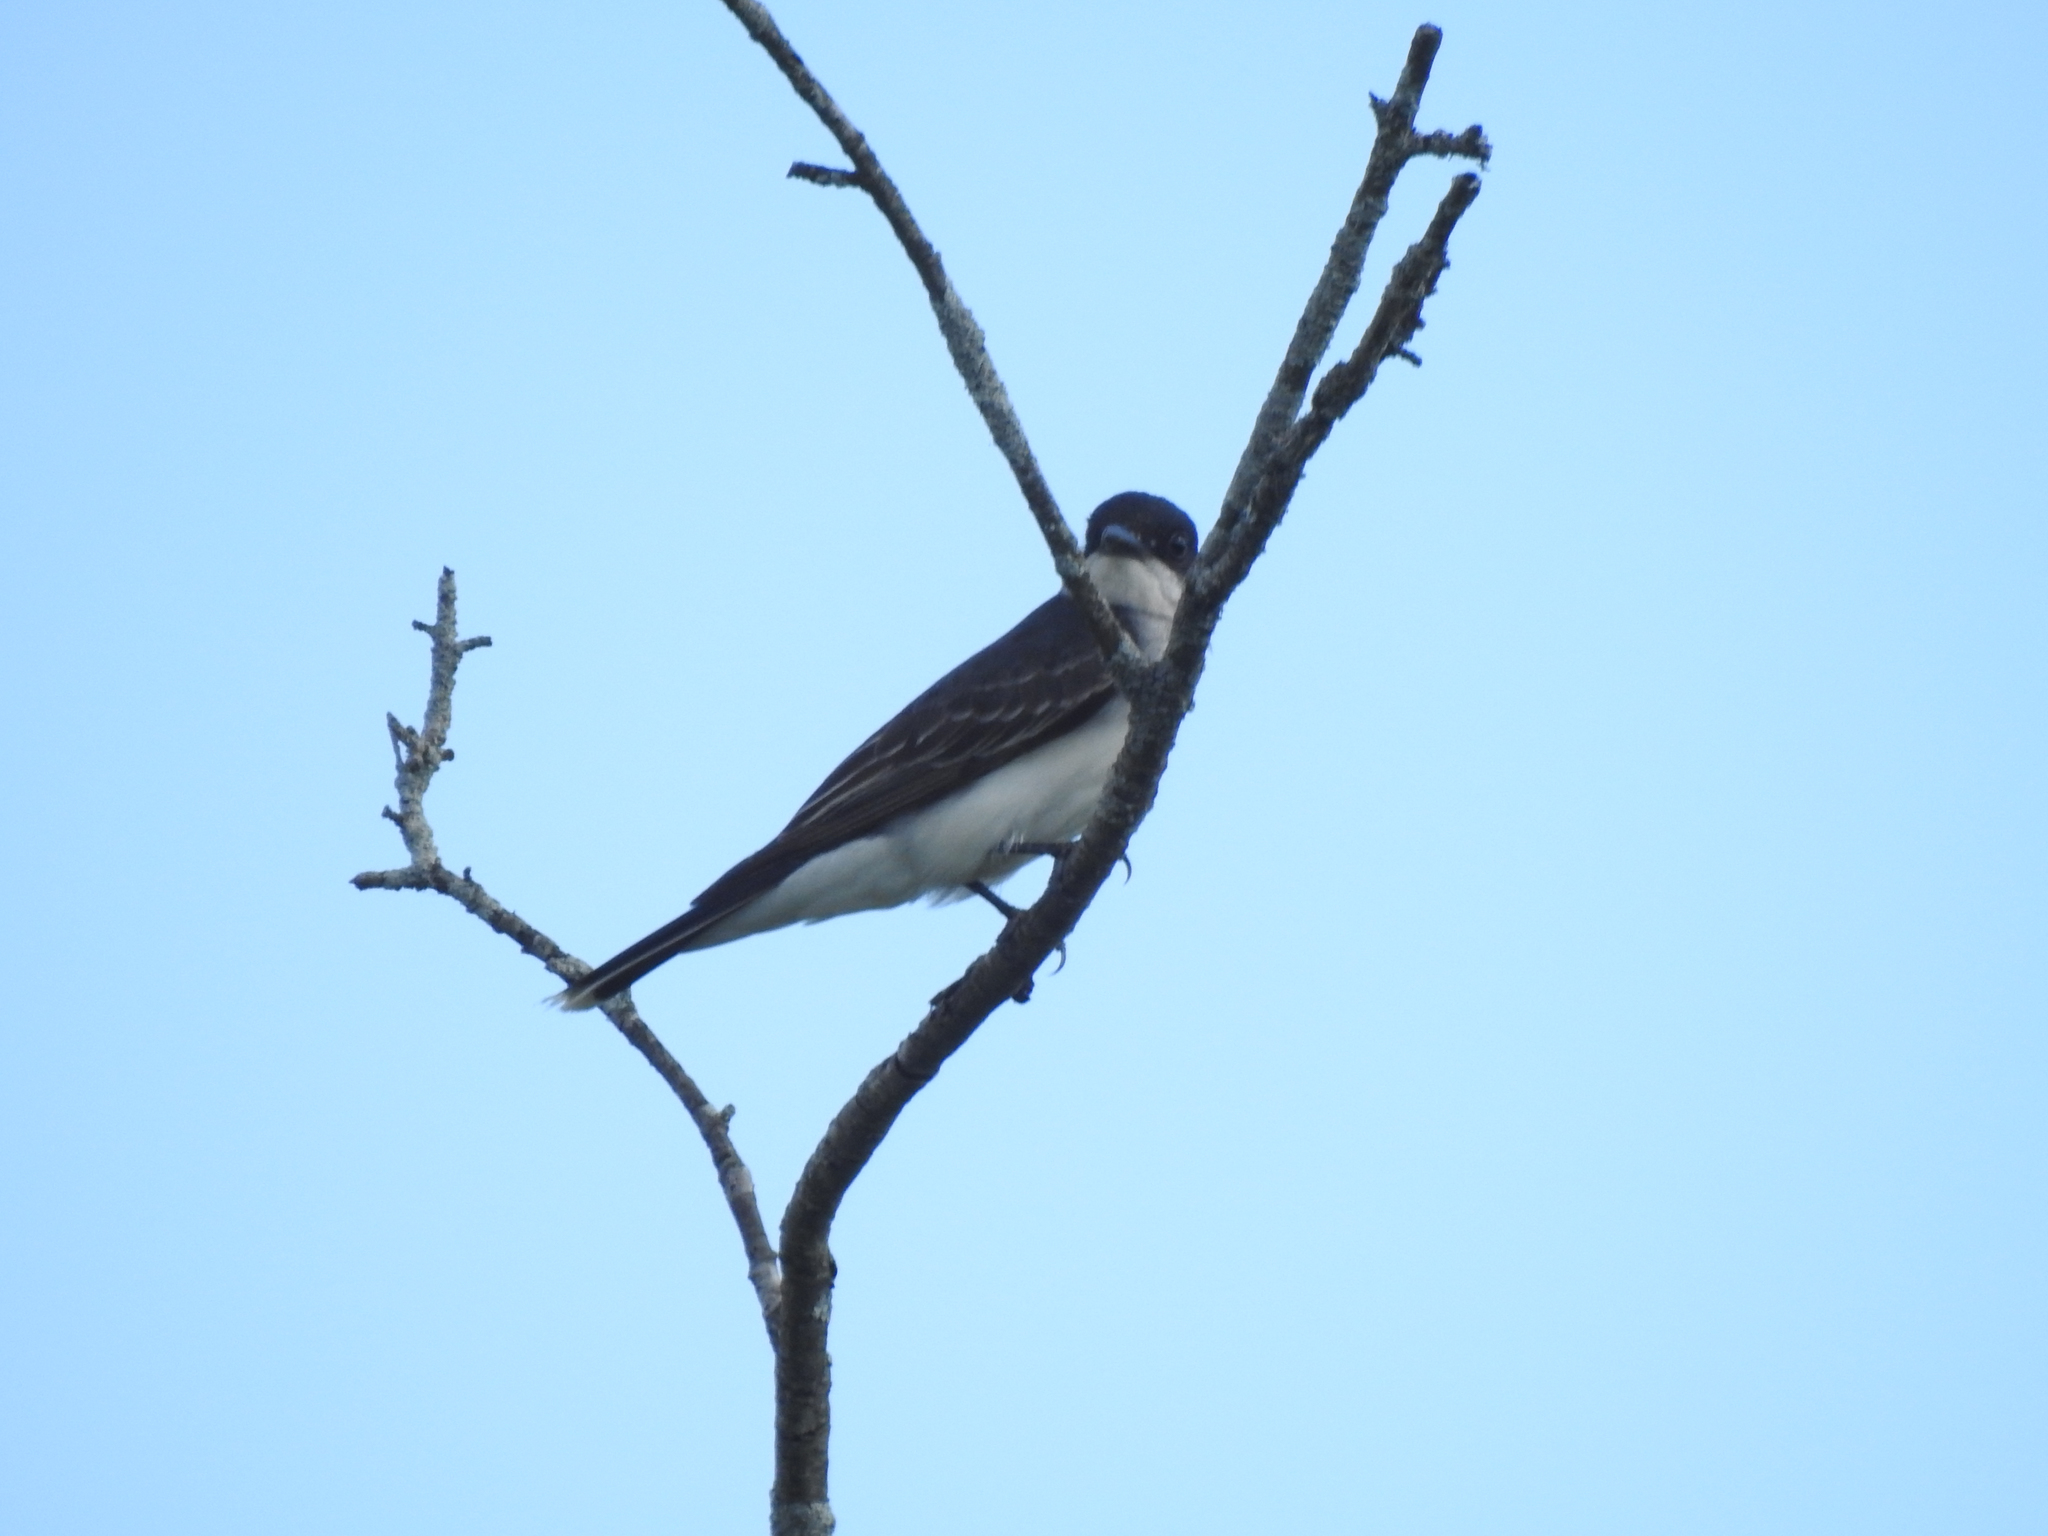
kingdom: Animalia
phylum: Chordata
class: Aves
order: Passeriformes
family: Tyrannidae
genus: Tyrannus
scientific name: Tyrannus tyrannus
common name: Eastern kingbird
